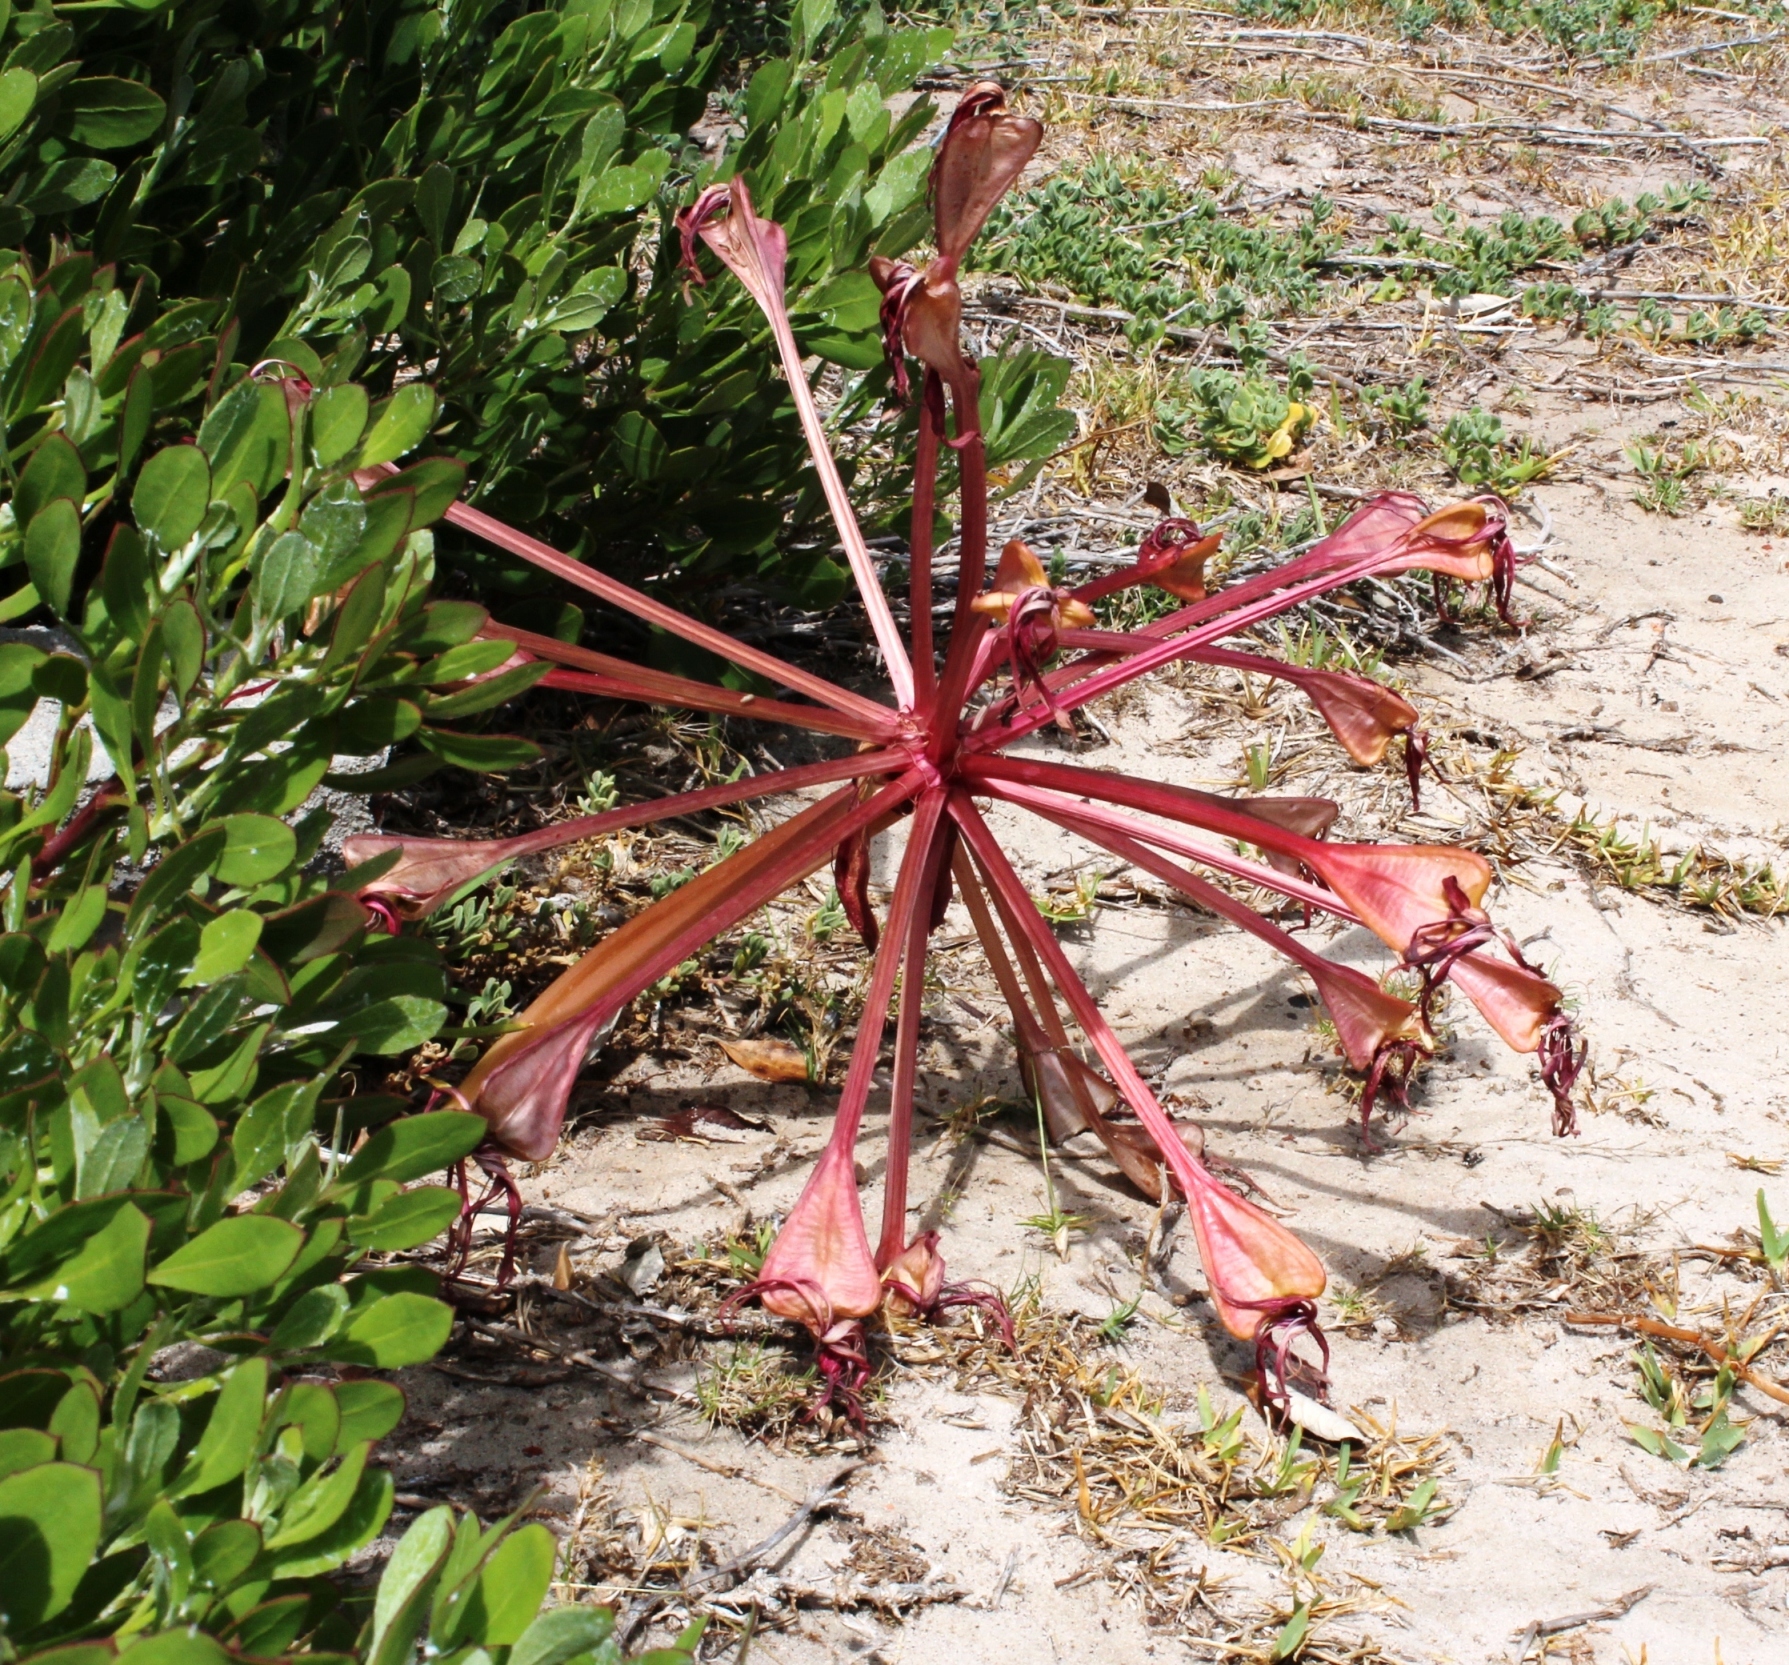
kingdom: Plantae
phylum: Tracheophyta
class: Liliopsida
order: Asparagales
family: Amaryllidaceae
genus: Brunsvigia
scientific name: Brunsvigia orientalis
